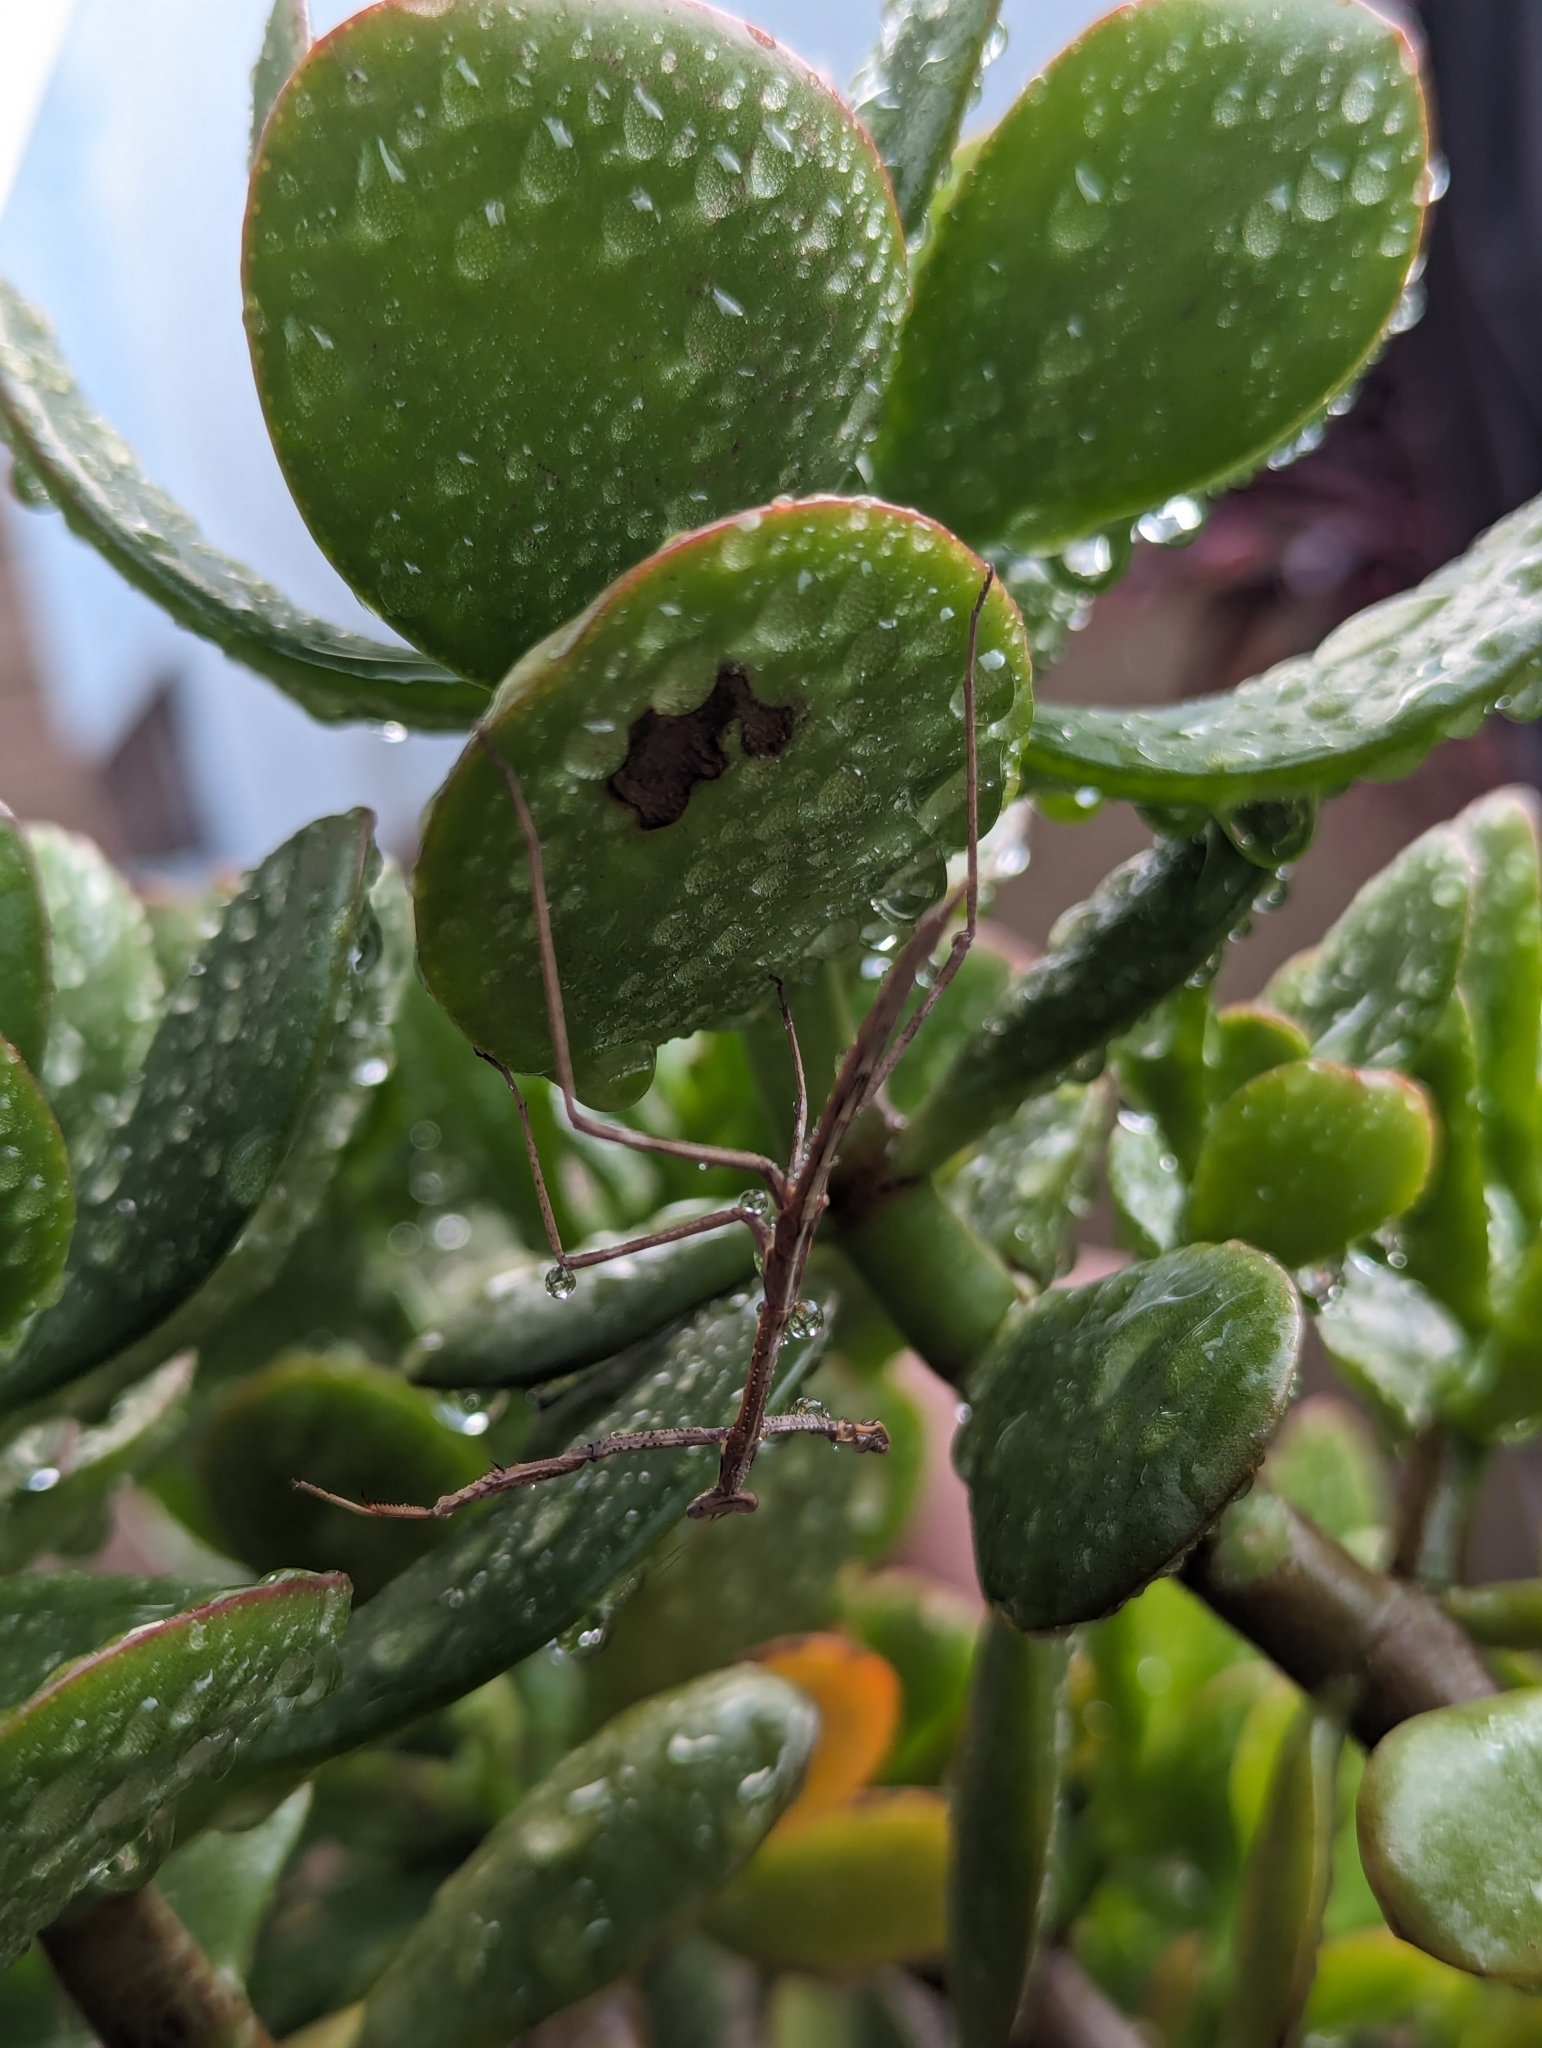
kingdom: Animalia
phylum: Arthropoda
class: Insecta
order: Mantodea
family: Mantidae
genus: Archimantis
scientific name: Archimantis latistyla
